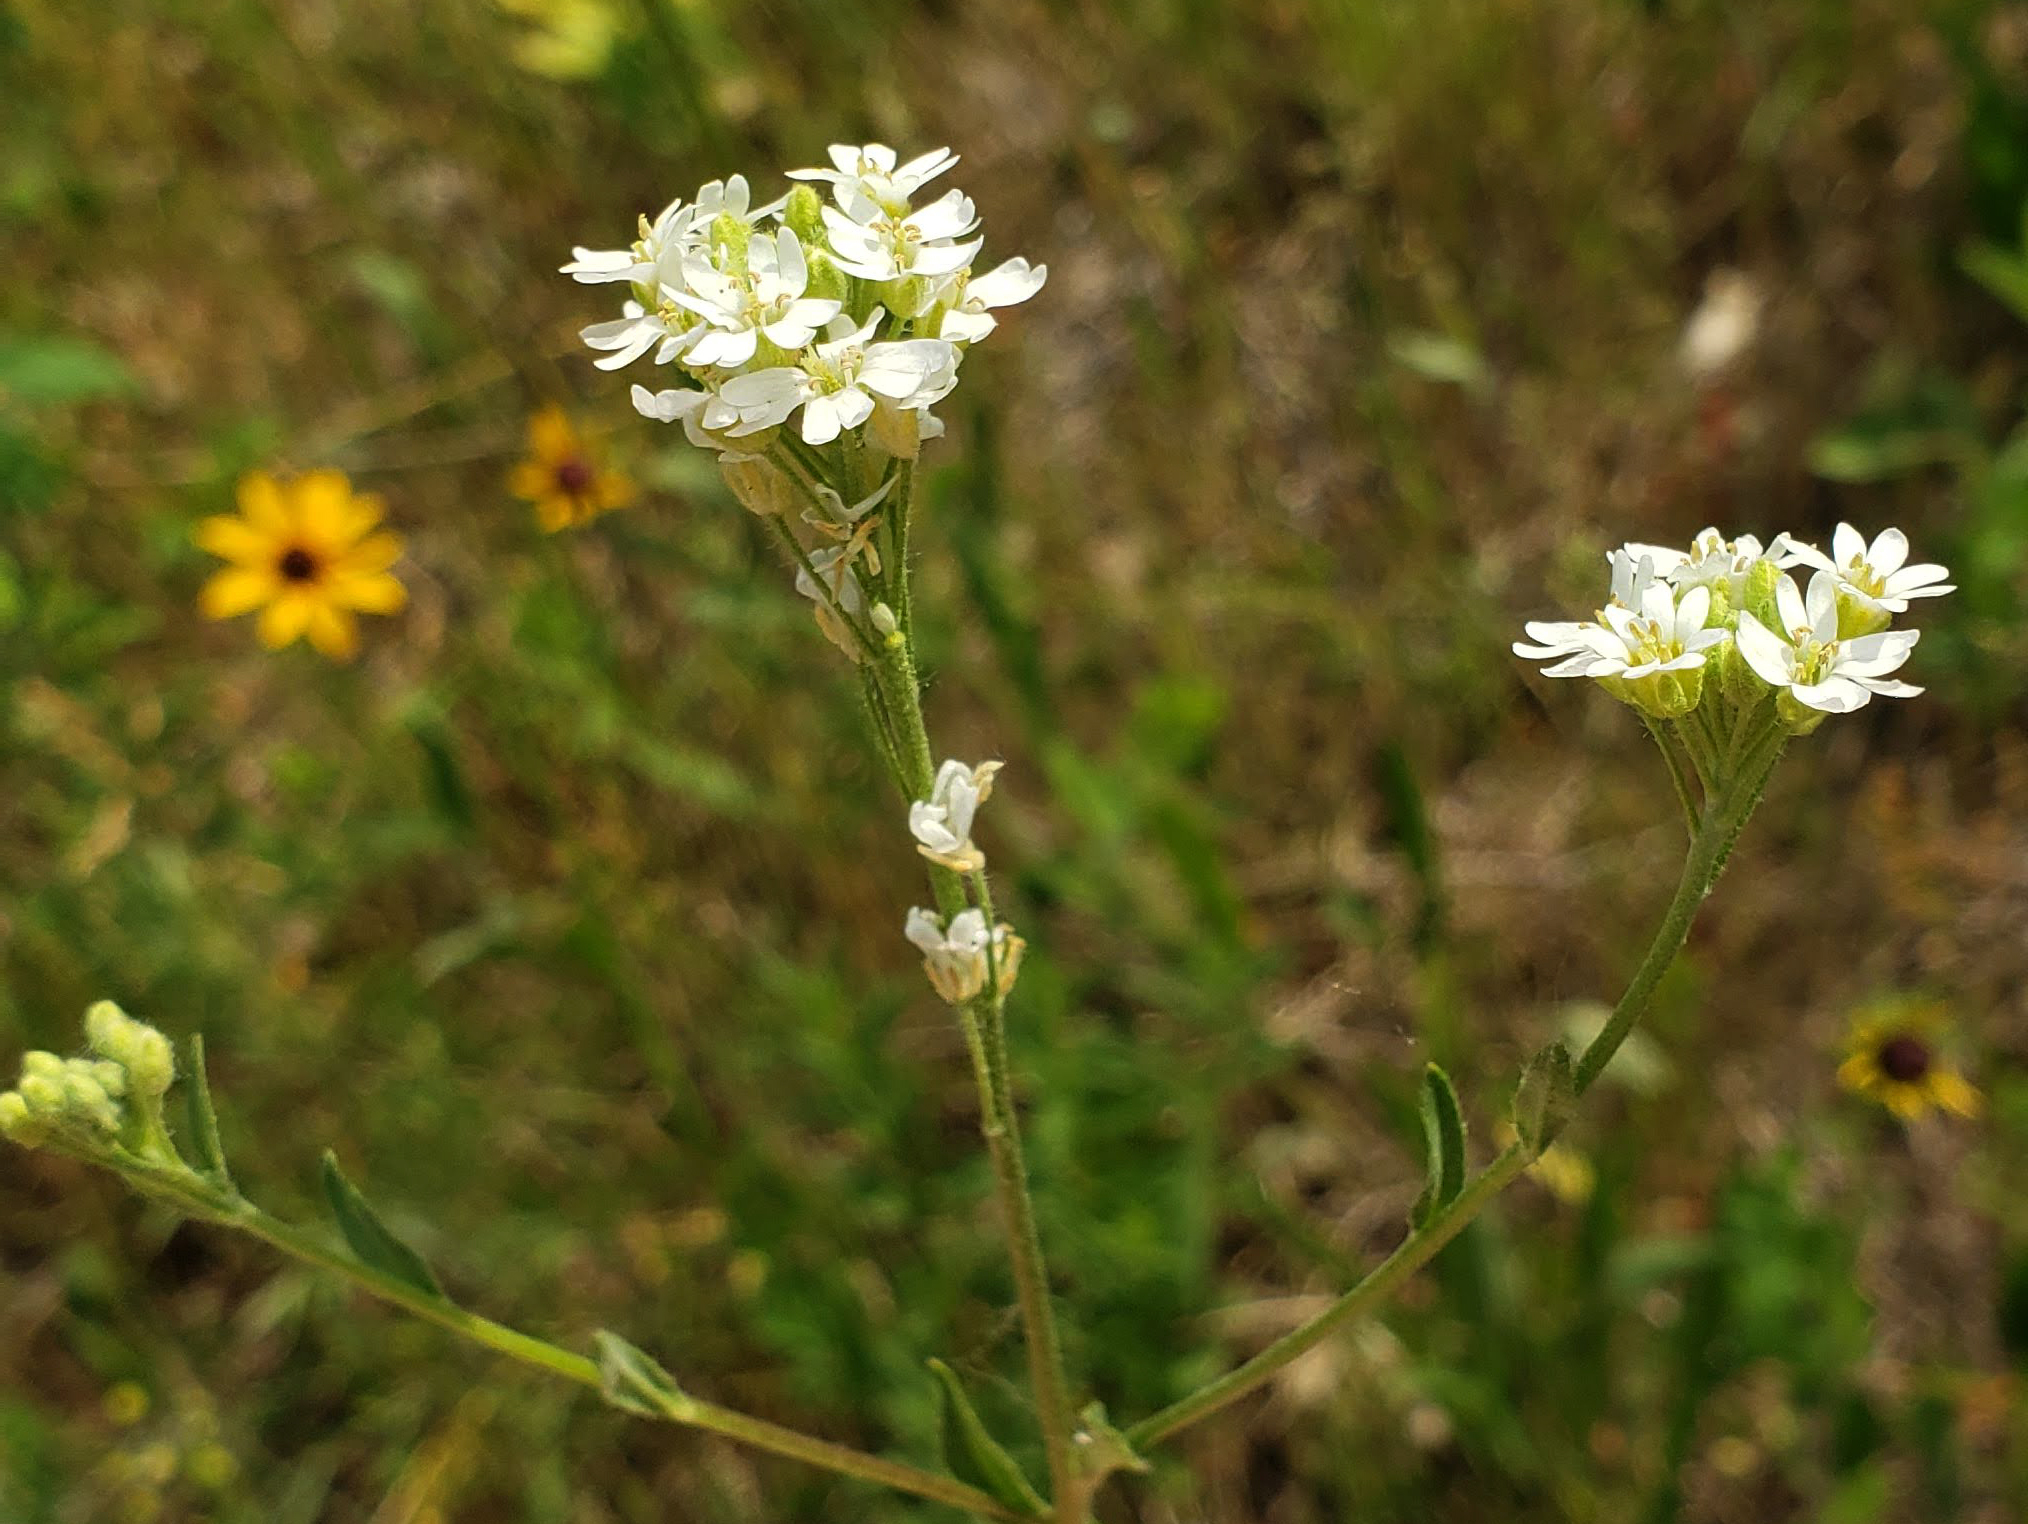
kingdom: Plantae
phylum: Tracheophyta
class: Magnoliopsida
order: Brassicales
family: Brassicaceae
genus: Berteroa
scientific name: Berteroa incana
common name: Hoary alison
